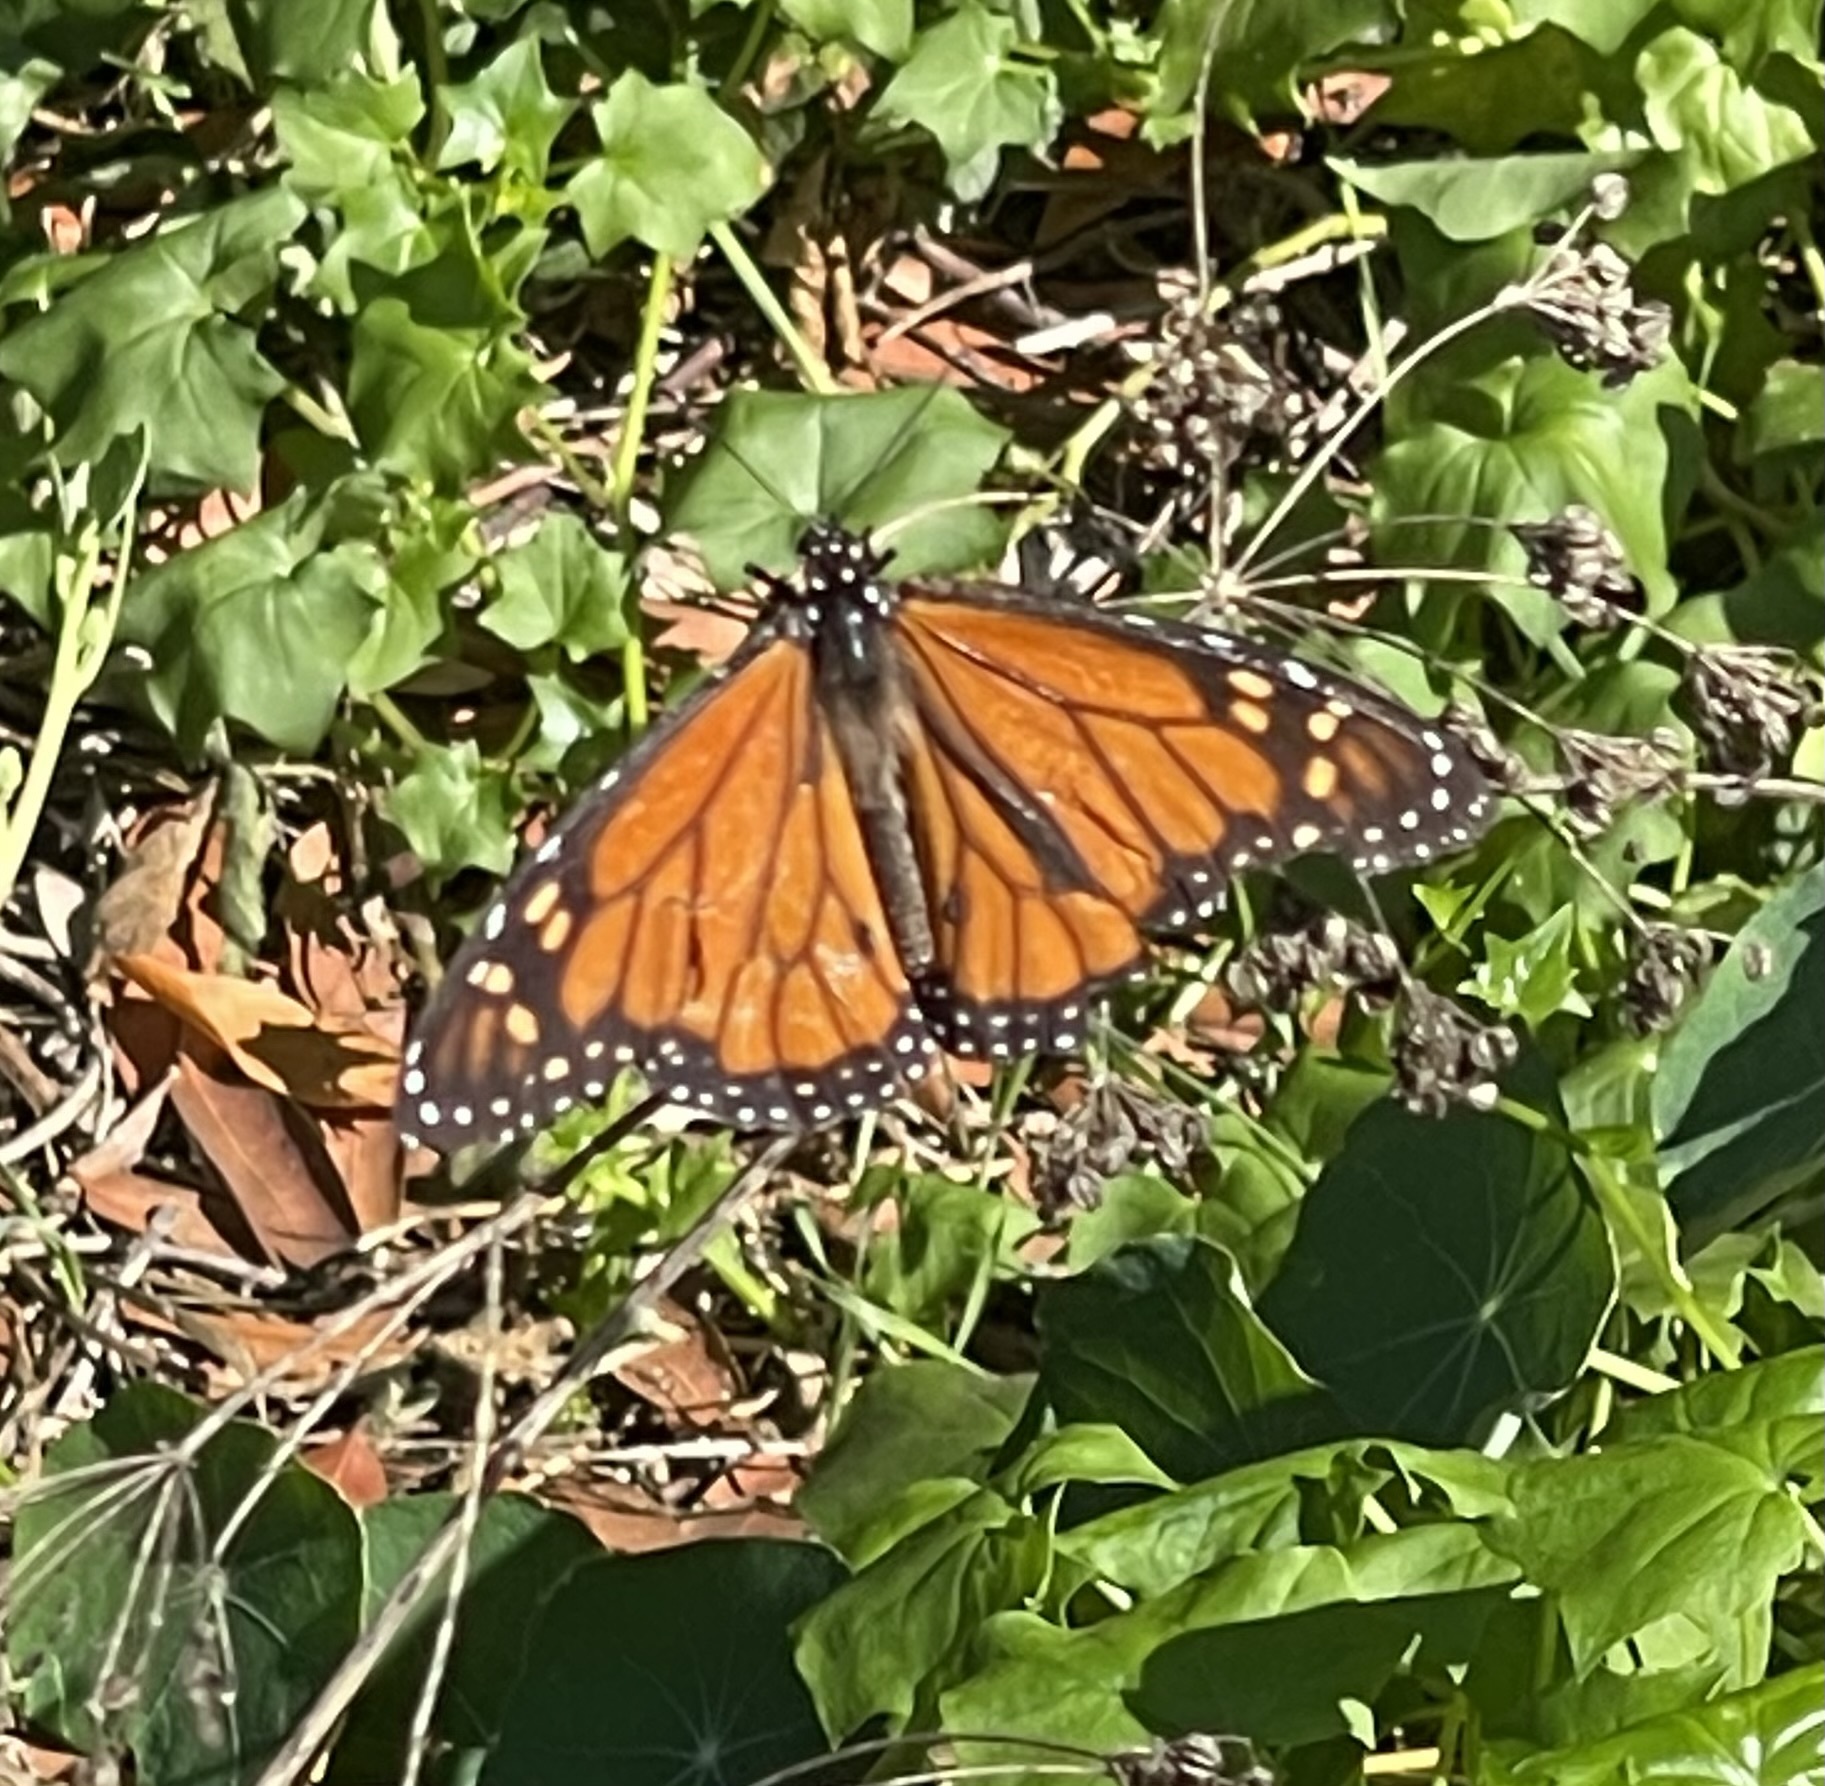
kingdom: Animalia
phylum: Arthropoda
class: Insecta
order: Lepidoptera
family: Nymphalidae
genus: Danaus
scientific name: Danaus plexippus
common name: Monarch
